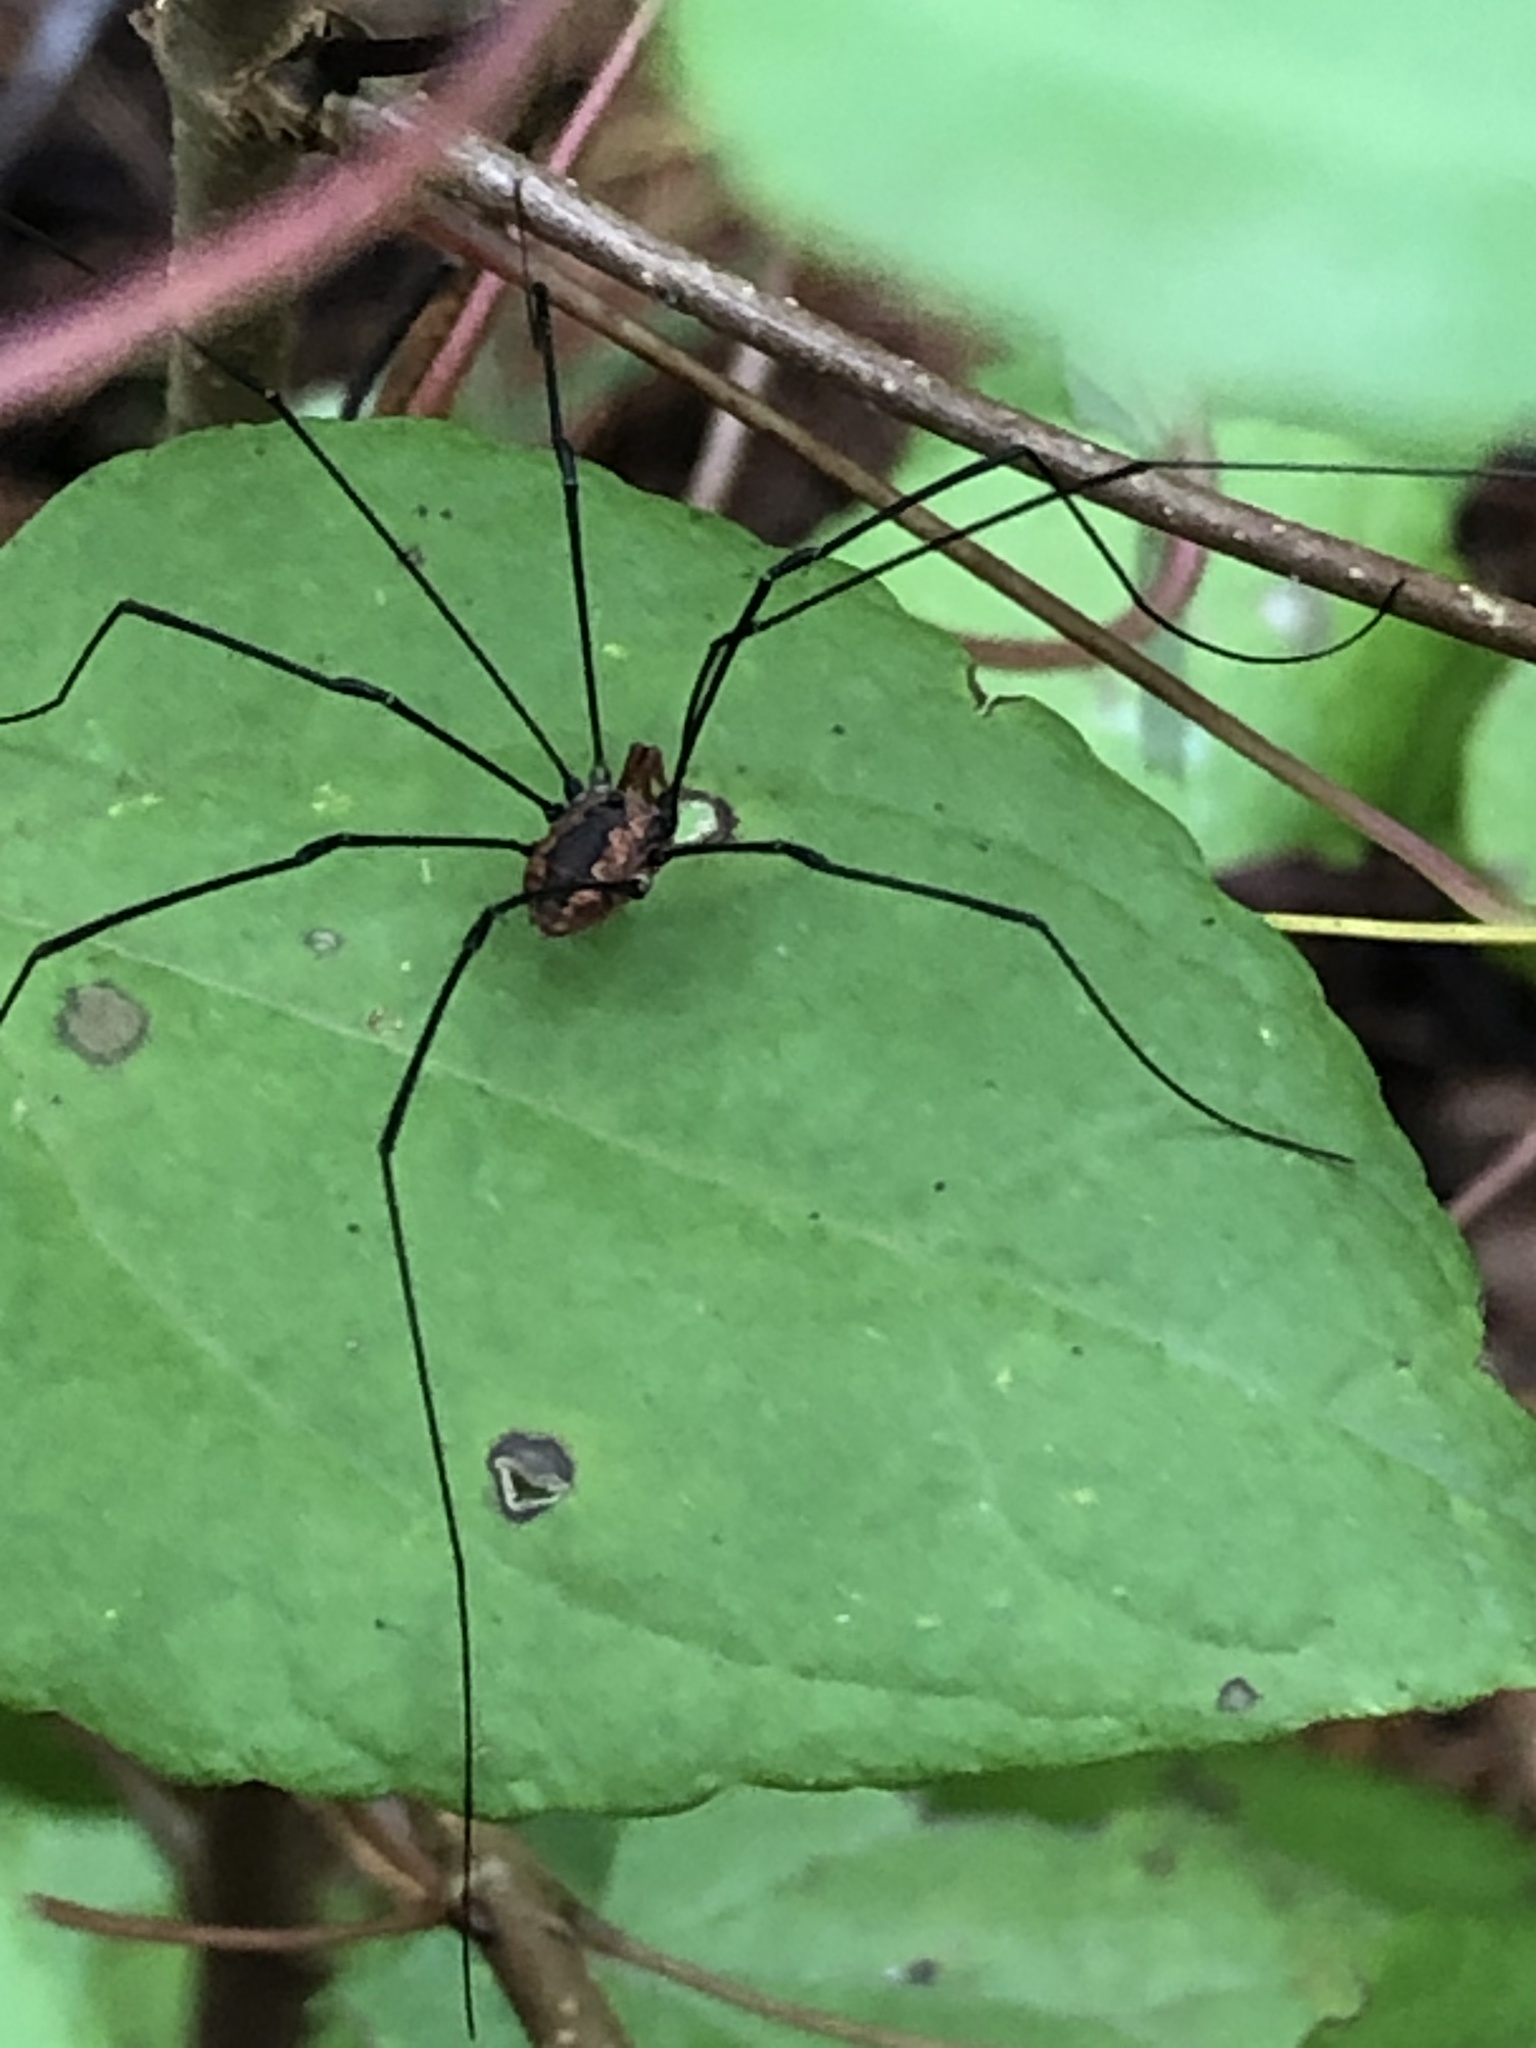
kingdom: Animalia
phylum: Arthropoda
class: Arachnida
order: Opiliones
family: Sclerosomatidae
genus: Leiobunum
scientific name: Leiobunum vittatum
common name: Eastern harvestman
